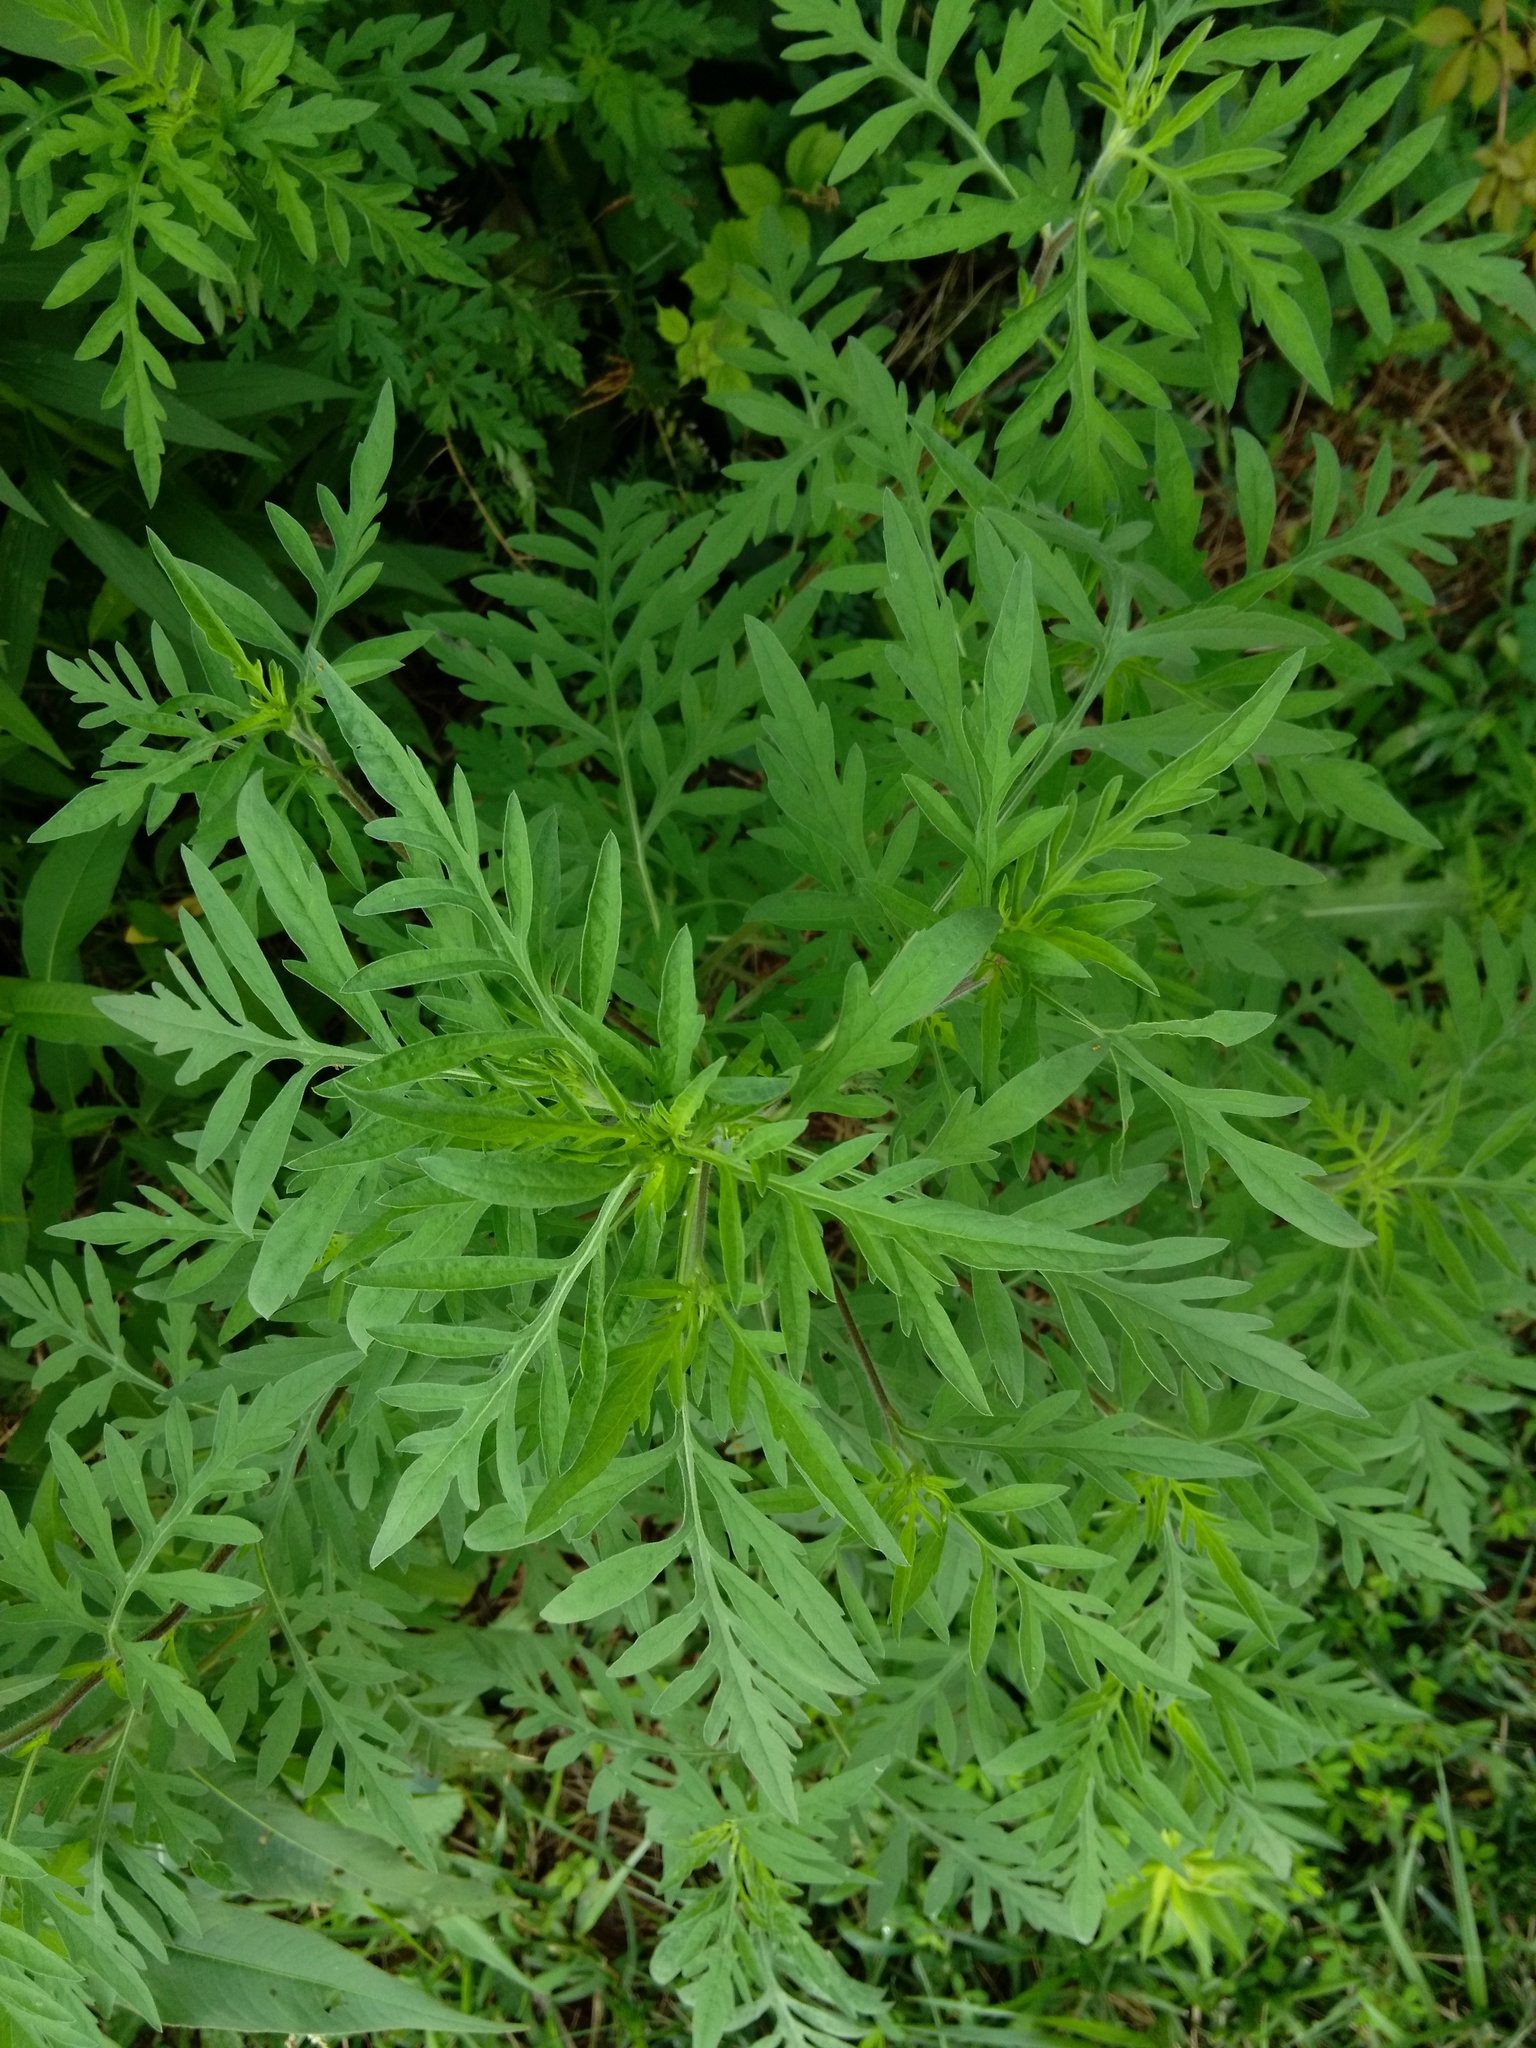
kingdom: Plantae
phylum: Tracheophyta
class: Magnoliopsida
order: Asterales
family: Asteraceae
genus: Ambrosia
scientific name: Ambrosia artemisiifolia
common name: Annual ragweed
